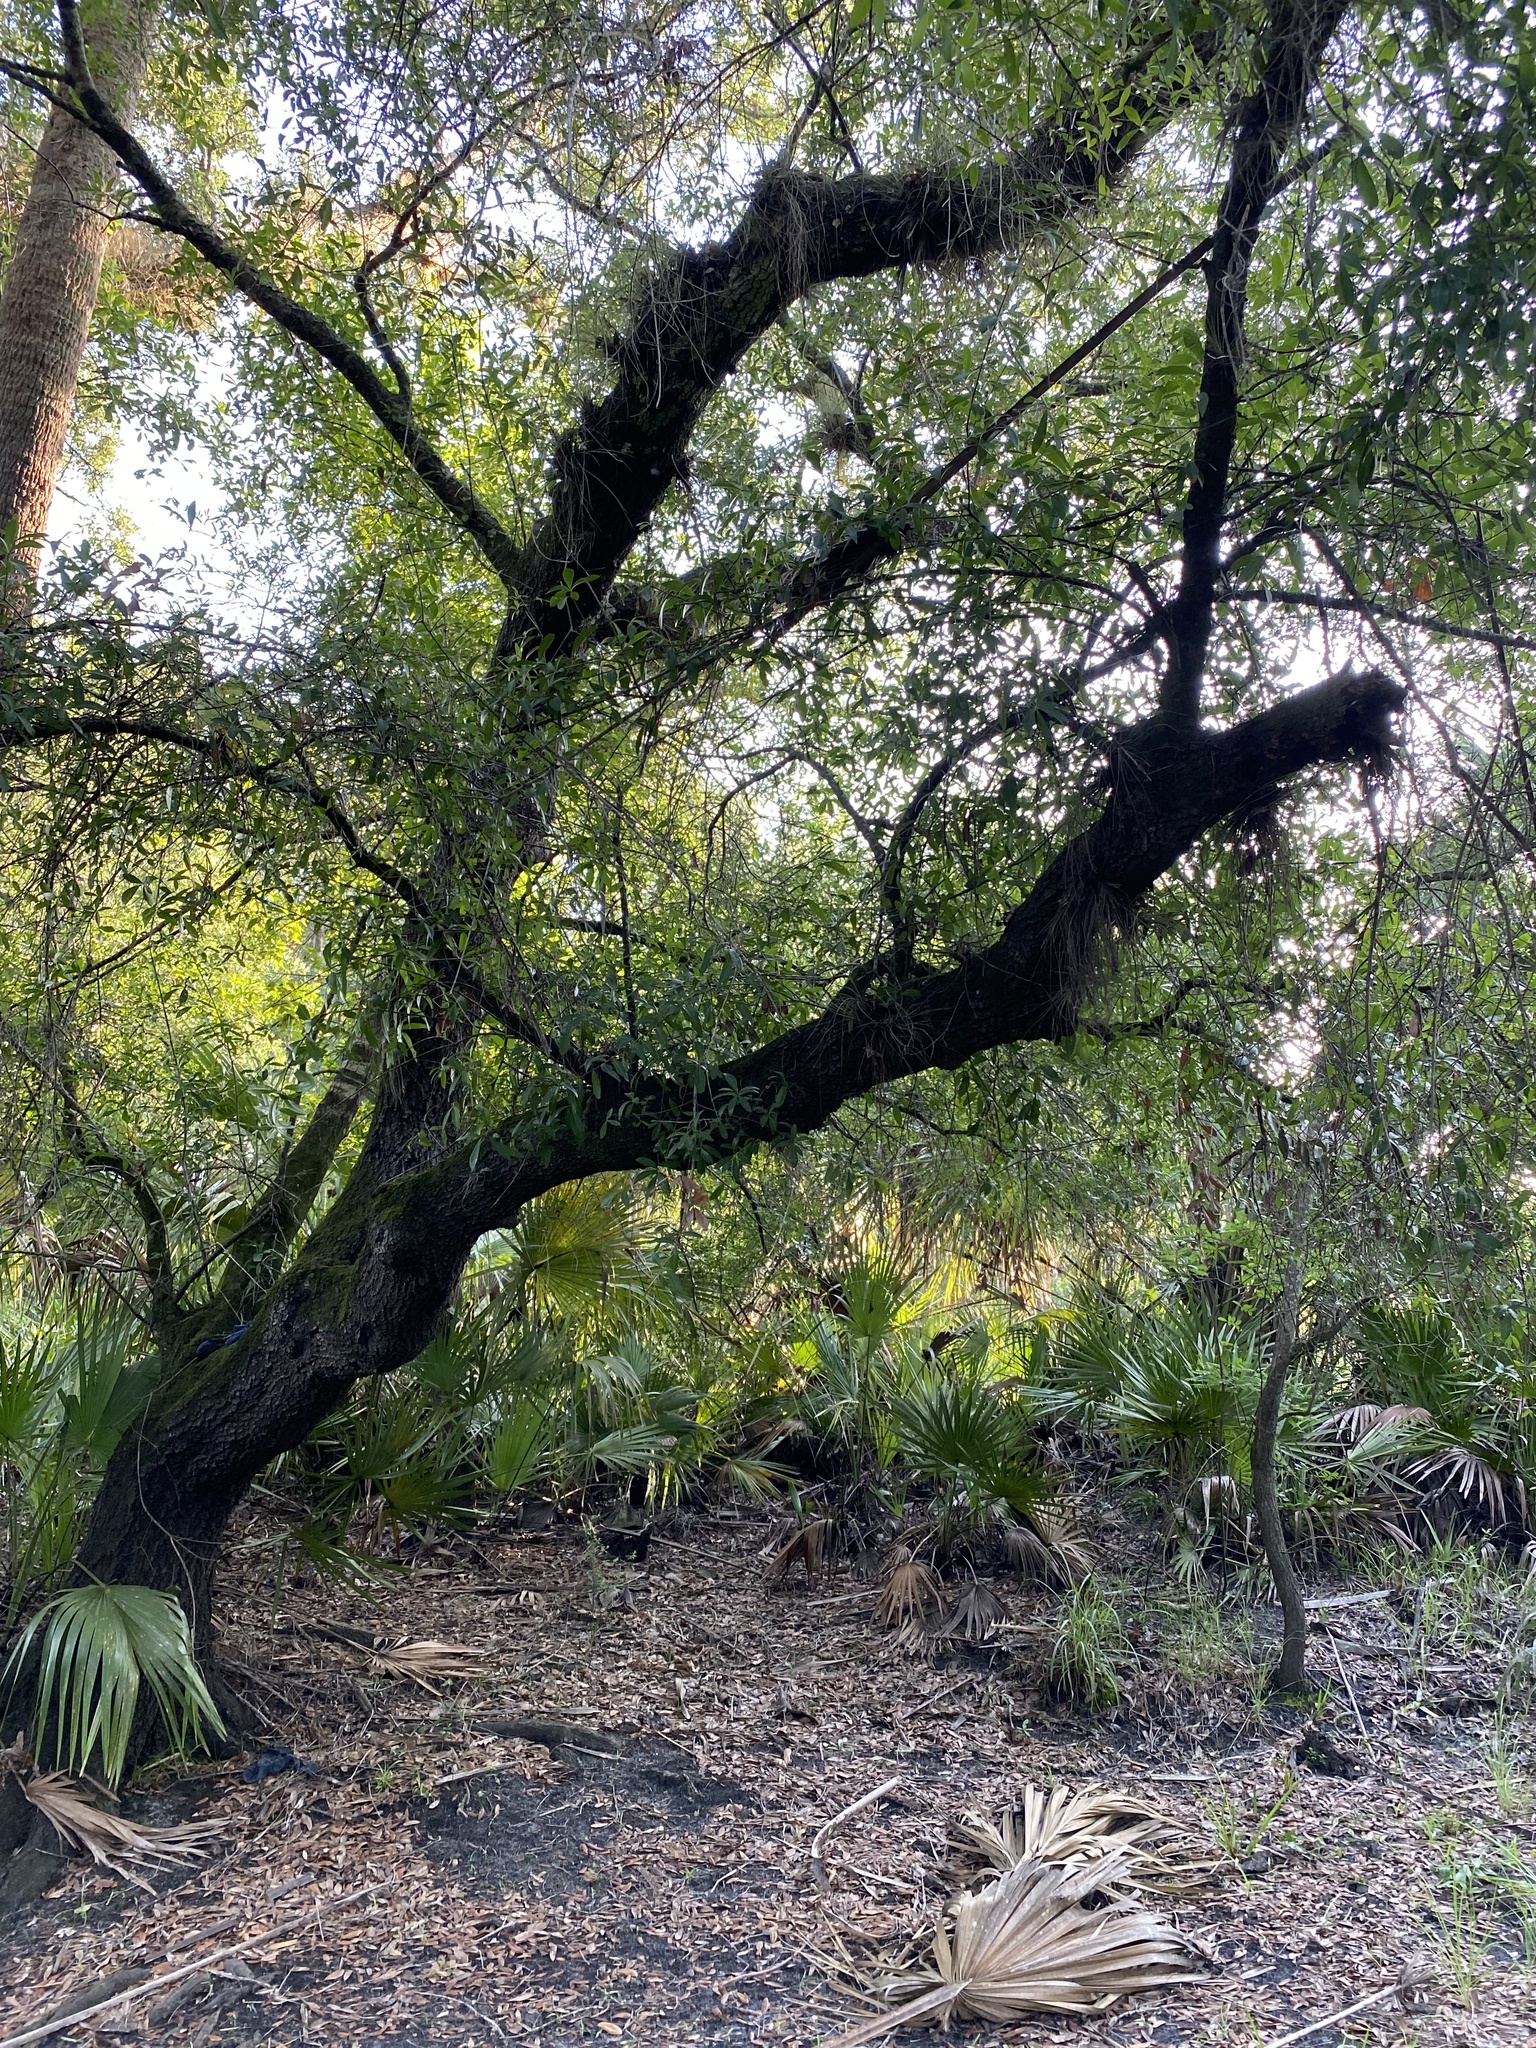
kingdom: Plantae
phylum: Tracheophyta
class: Magnoliopsida
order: Fagales
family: Fagaceae
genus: Quercus
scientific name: Quercus hemisphaerica
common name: Darlington oak
